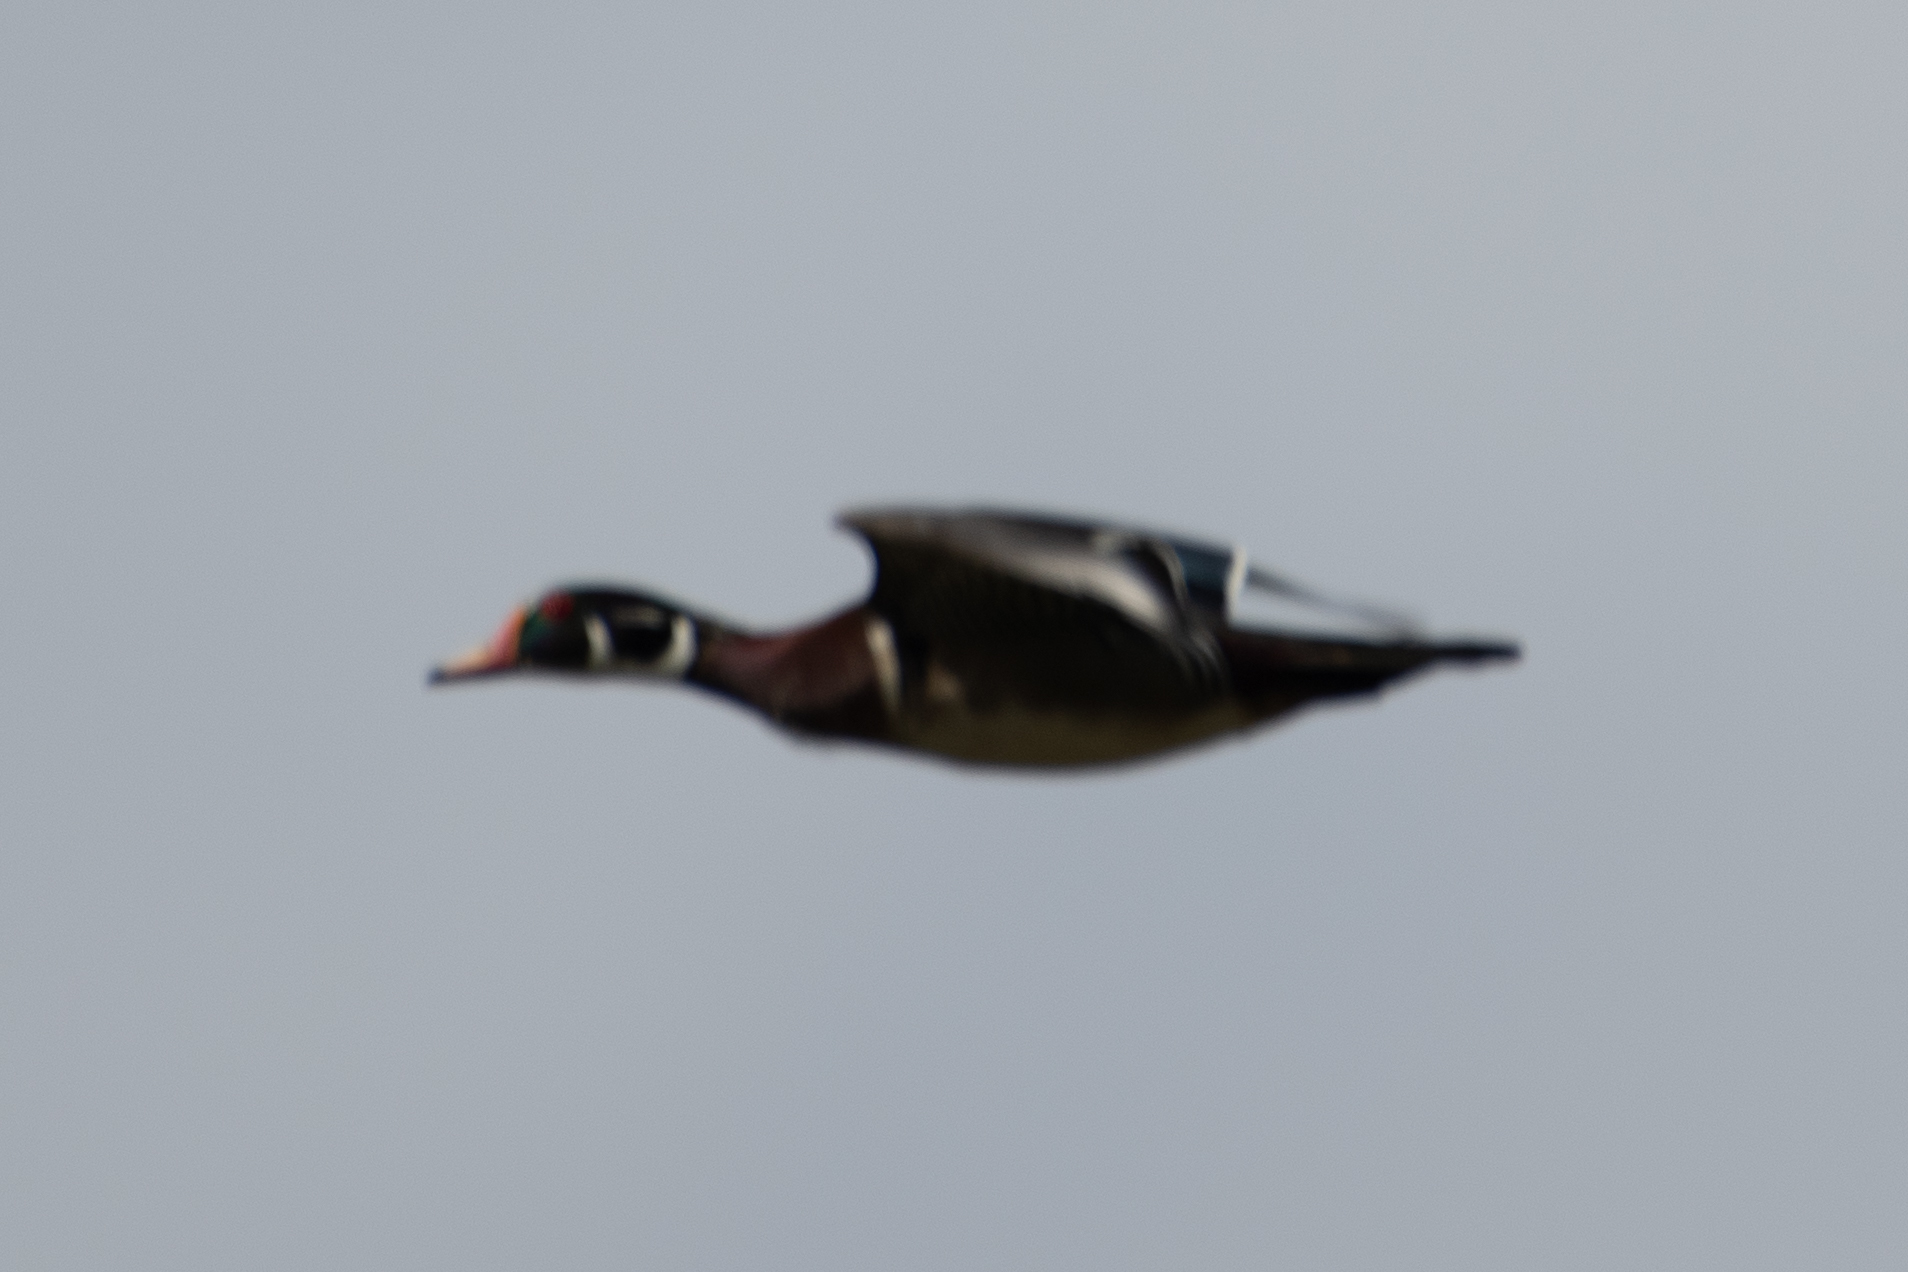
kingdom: Animalia
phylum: Chordata
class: Aves
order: Anseriformes
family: Anatidae
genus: Aix
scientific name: Aix sponsa
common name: Wood duck
